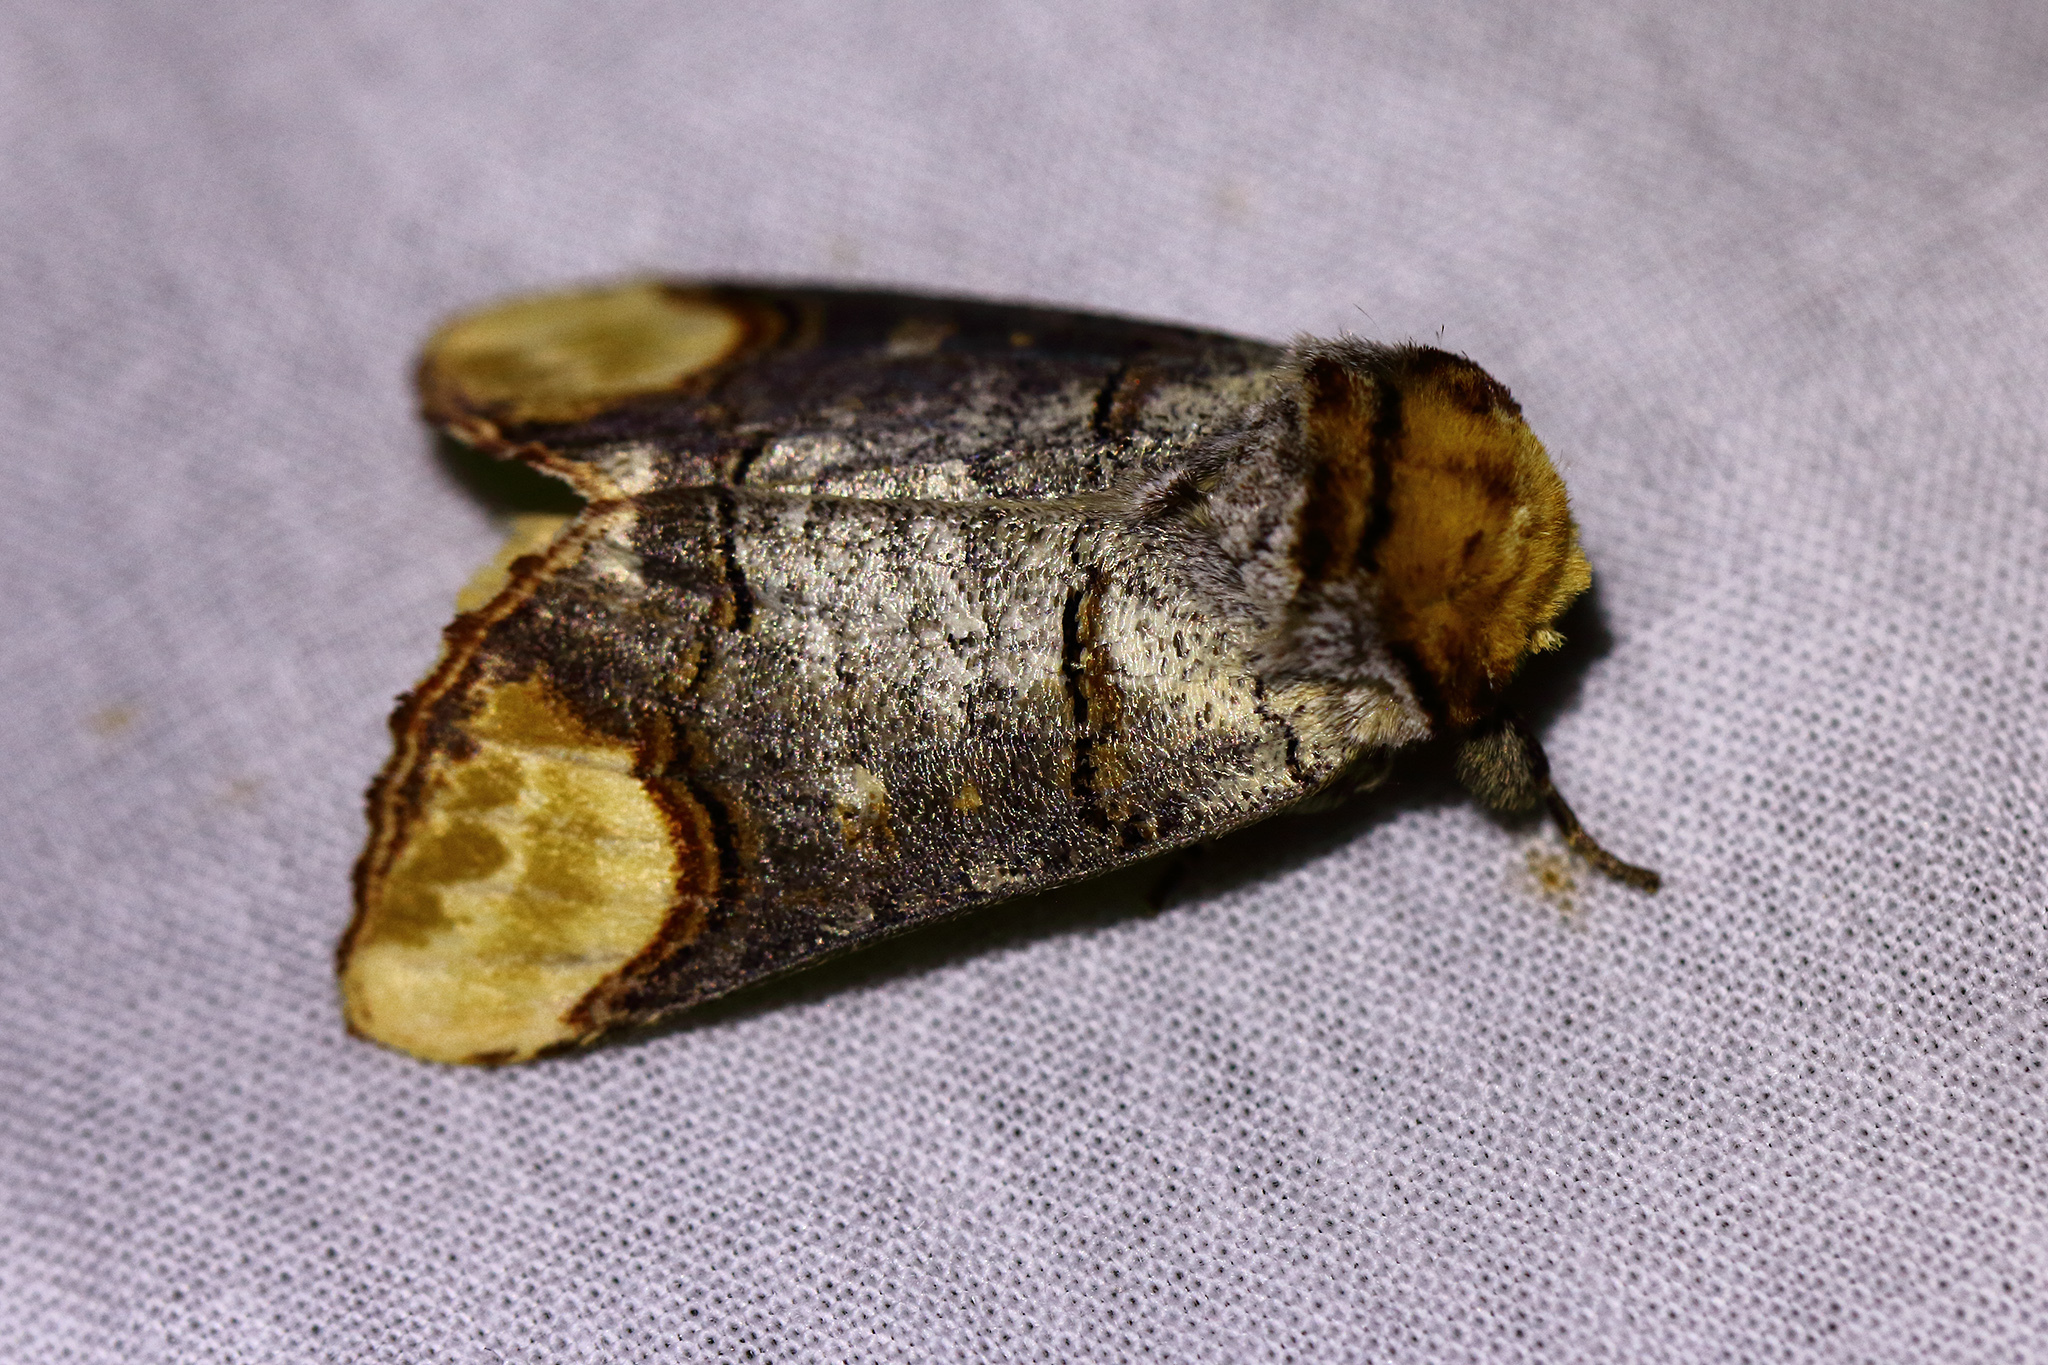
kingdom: Animalia
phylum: Arthropoda
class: Insecta
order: Lepidoptera
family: Notodontidae
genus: Phalera
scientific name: Phalera bucephala
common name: Buff-tip
